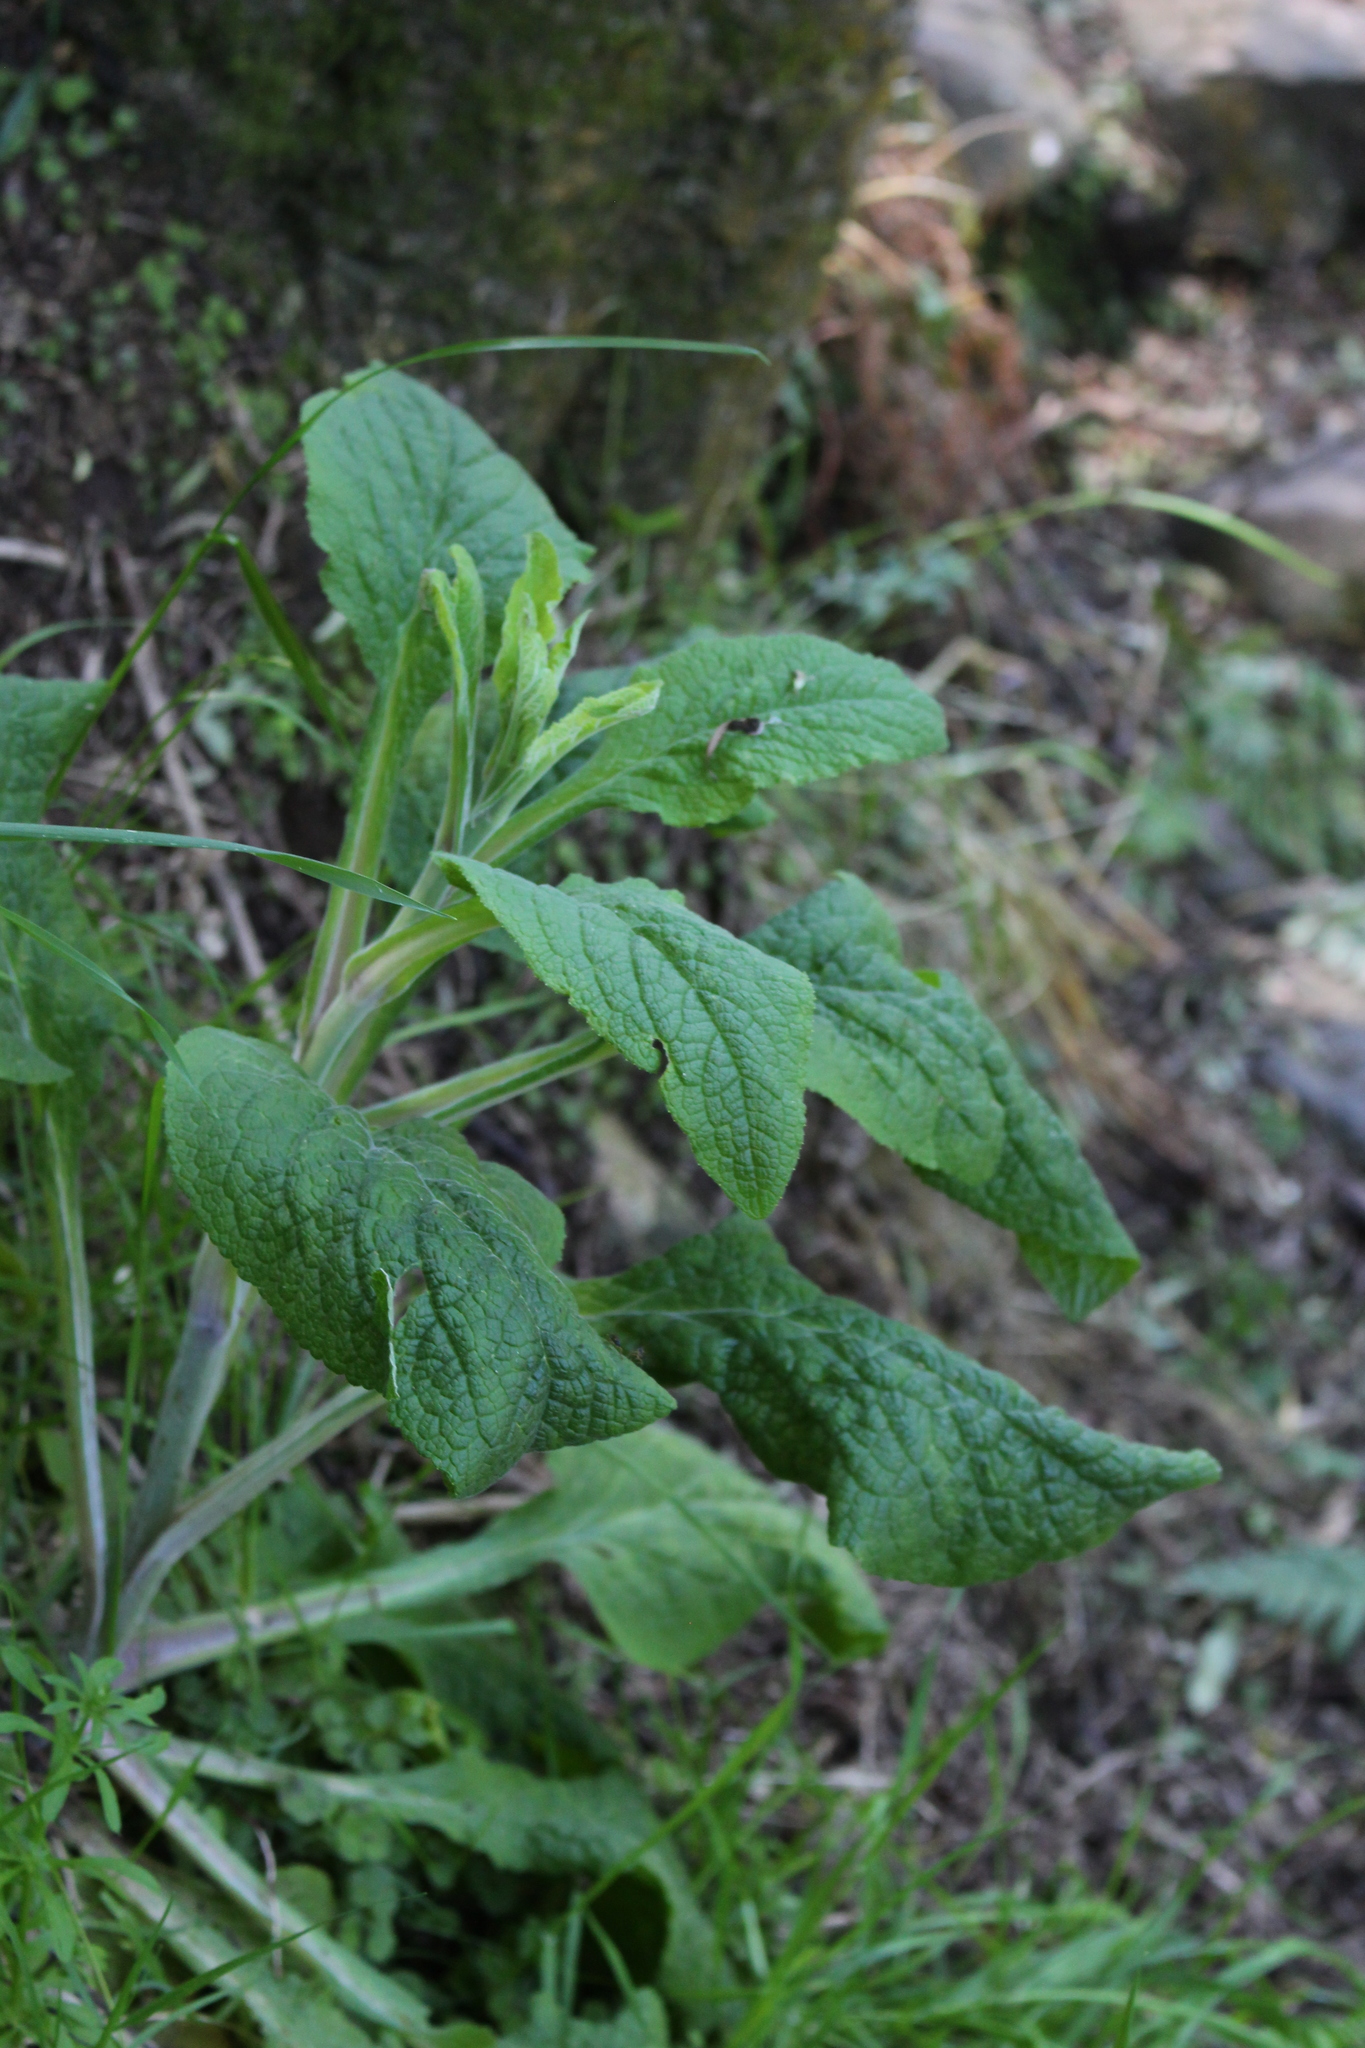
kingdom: Plantae
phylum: Tracheophyta
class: Magnoliopsida
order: Lamiales
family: Plantaginaceae
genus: Digitalis
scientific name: Digitalis purpurea
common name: Foxglove
